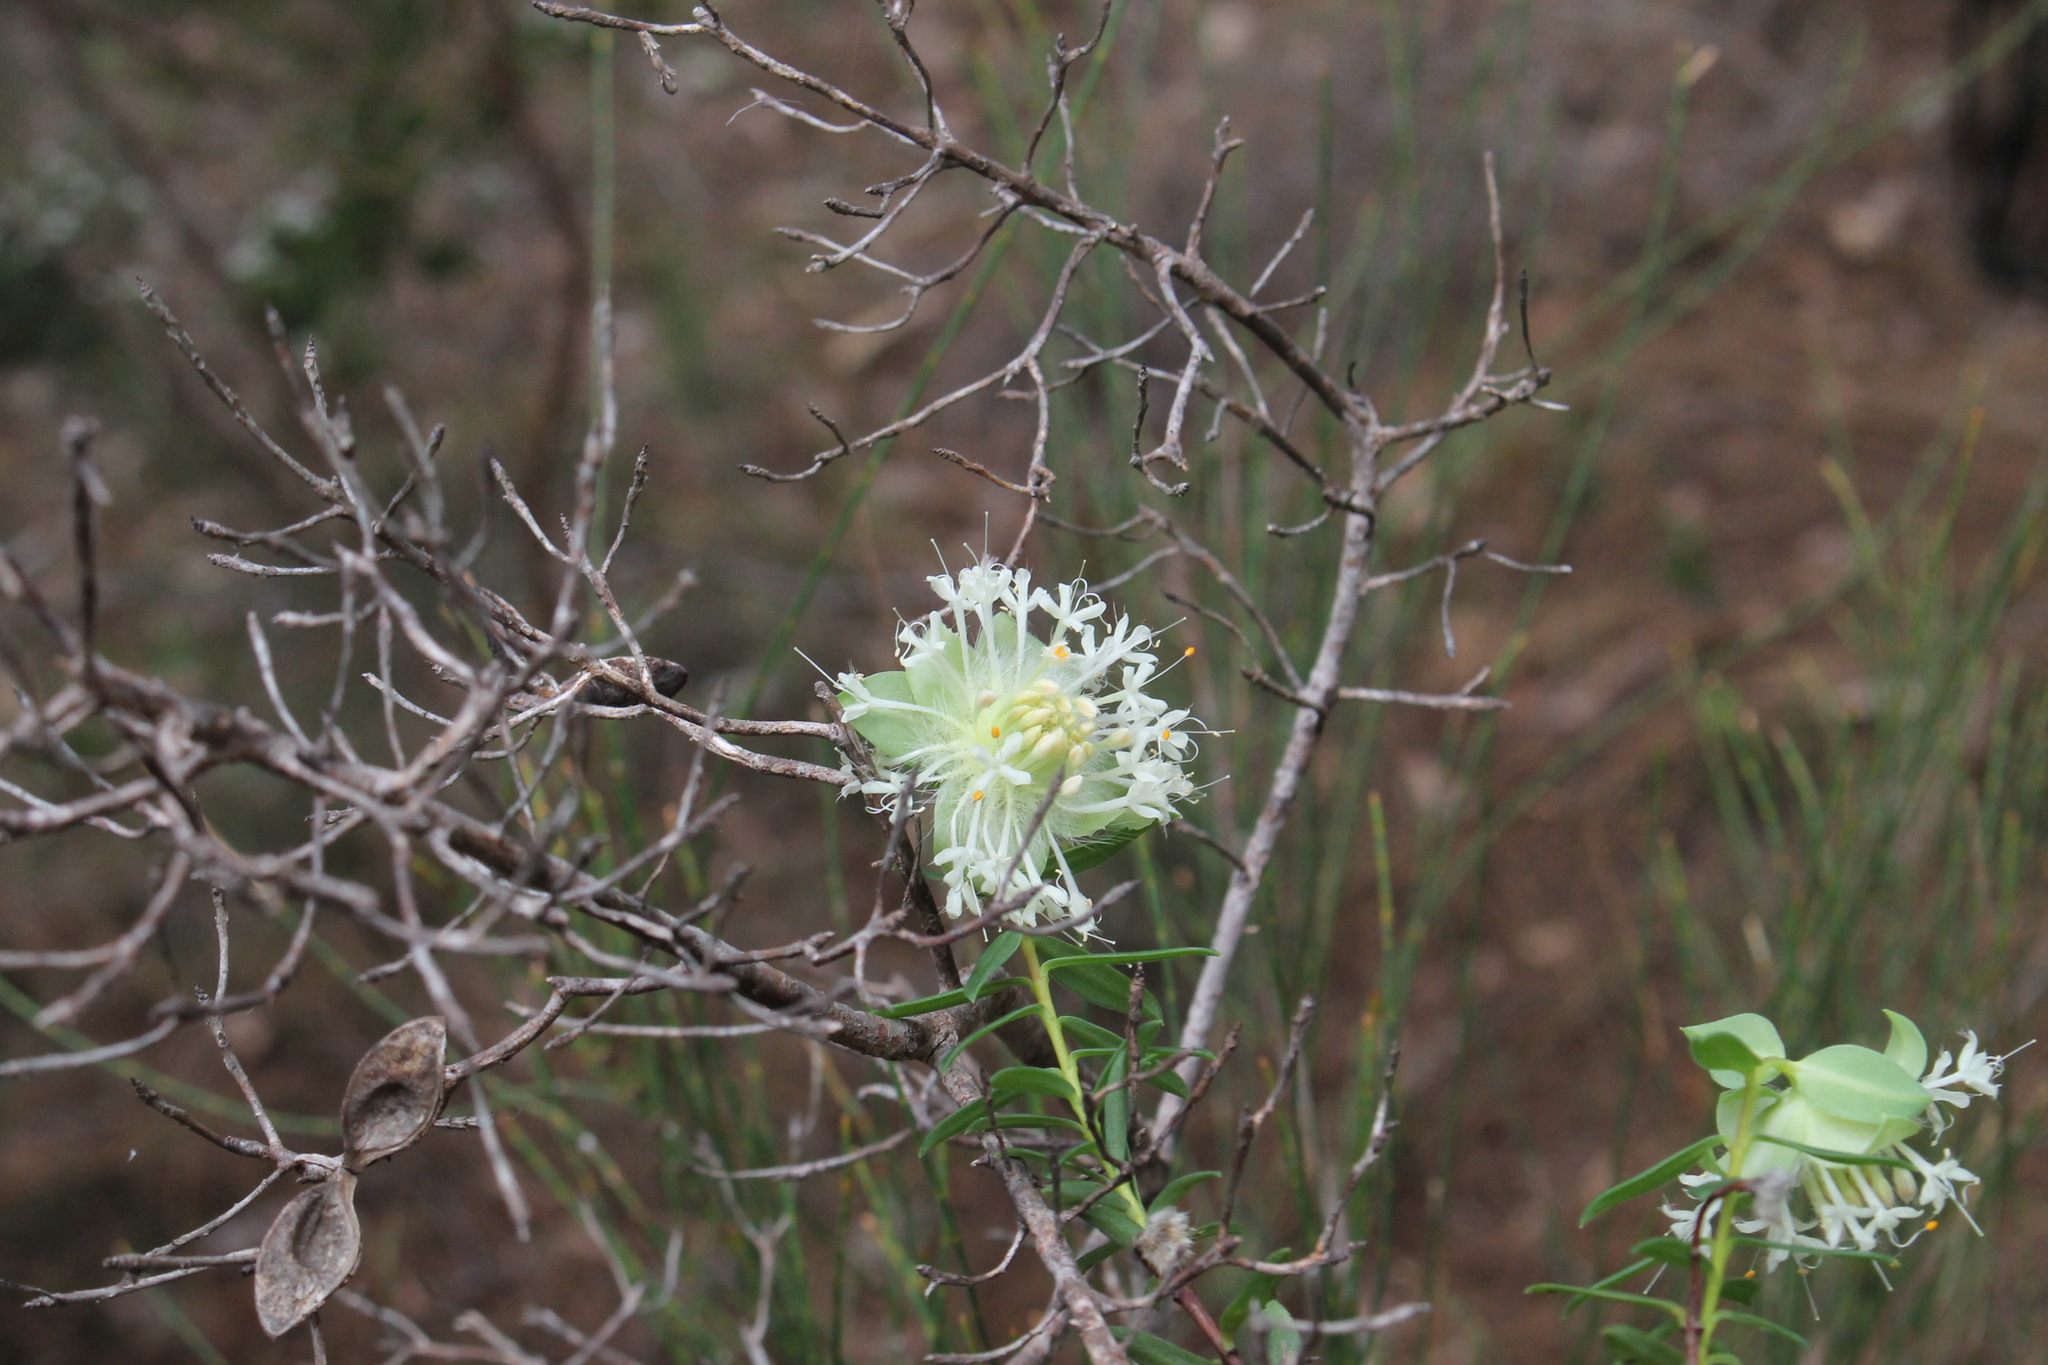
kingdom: Plantae
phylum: Tracheophyta
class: Magnoliopsida
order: Malvales
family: Thymelaeaceae
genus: Pimelea
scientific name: Pimelea lehmanniana
